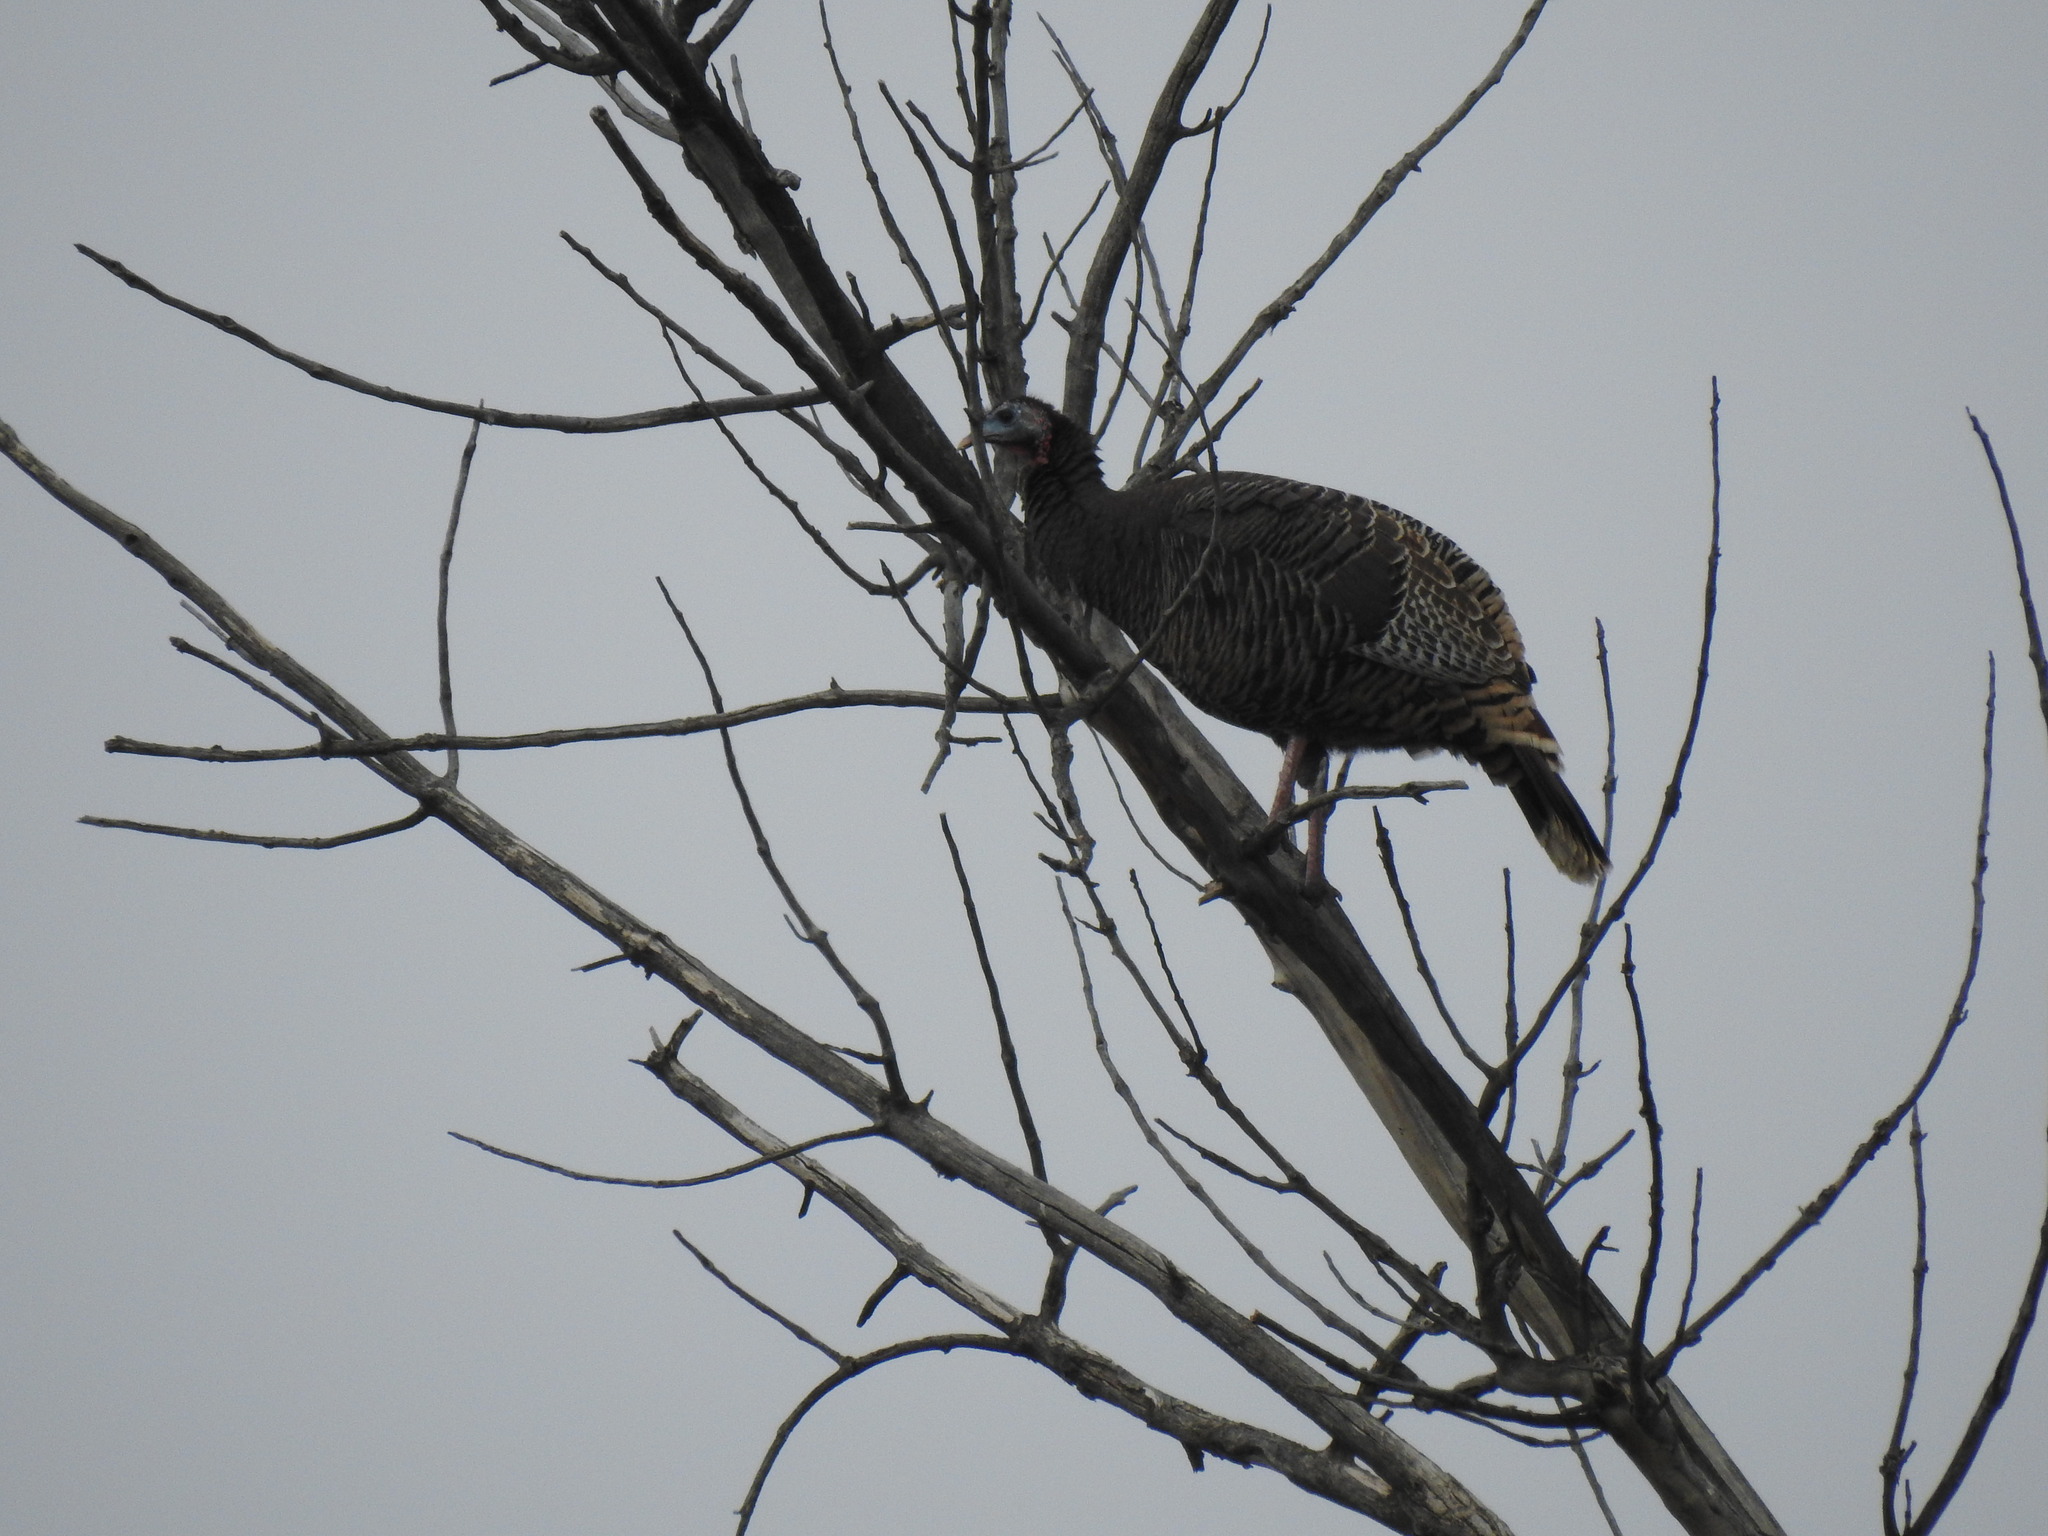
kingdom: Animalia
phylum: Chordata
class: Aves
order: Galliformes
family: Phasianidae
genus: Meleagris
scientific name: Meleagris gallopavo
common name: Wild turkey
